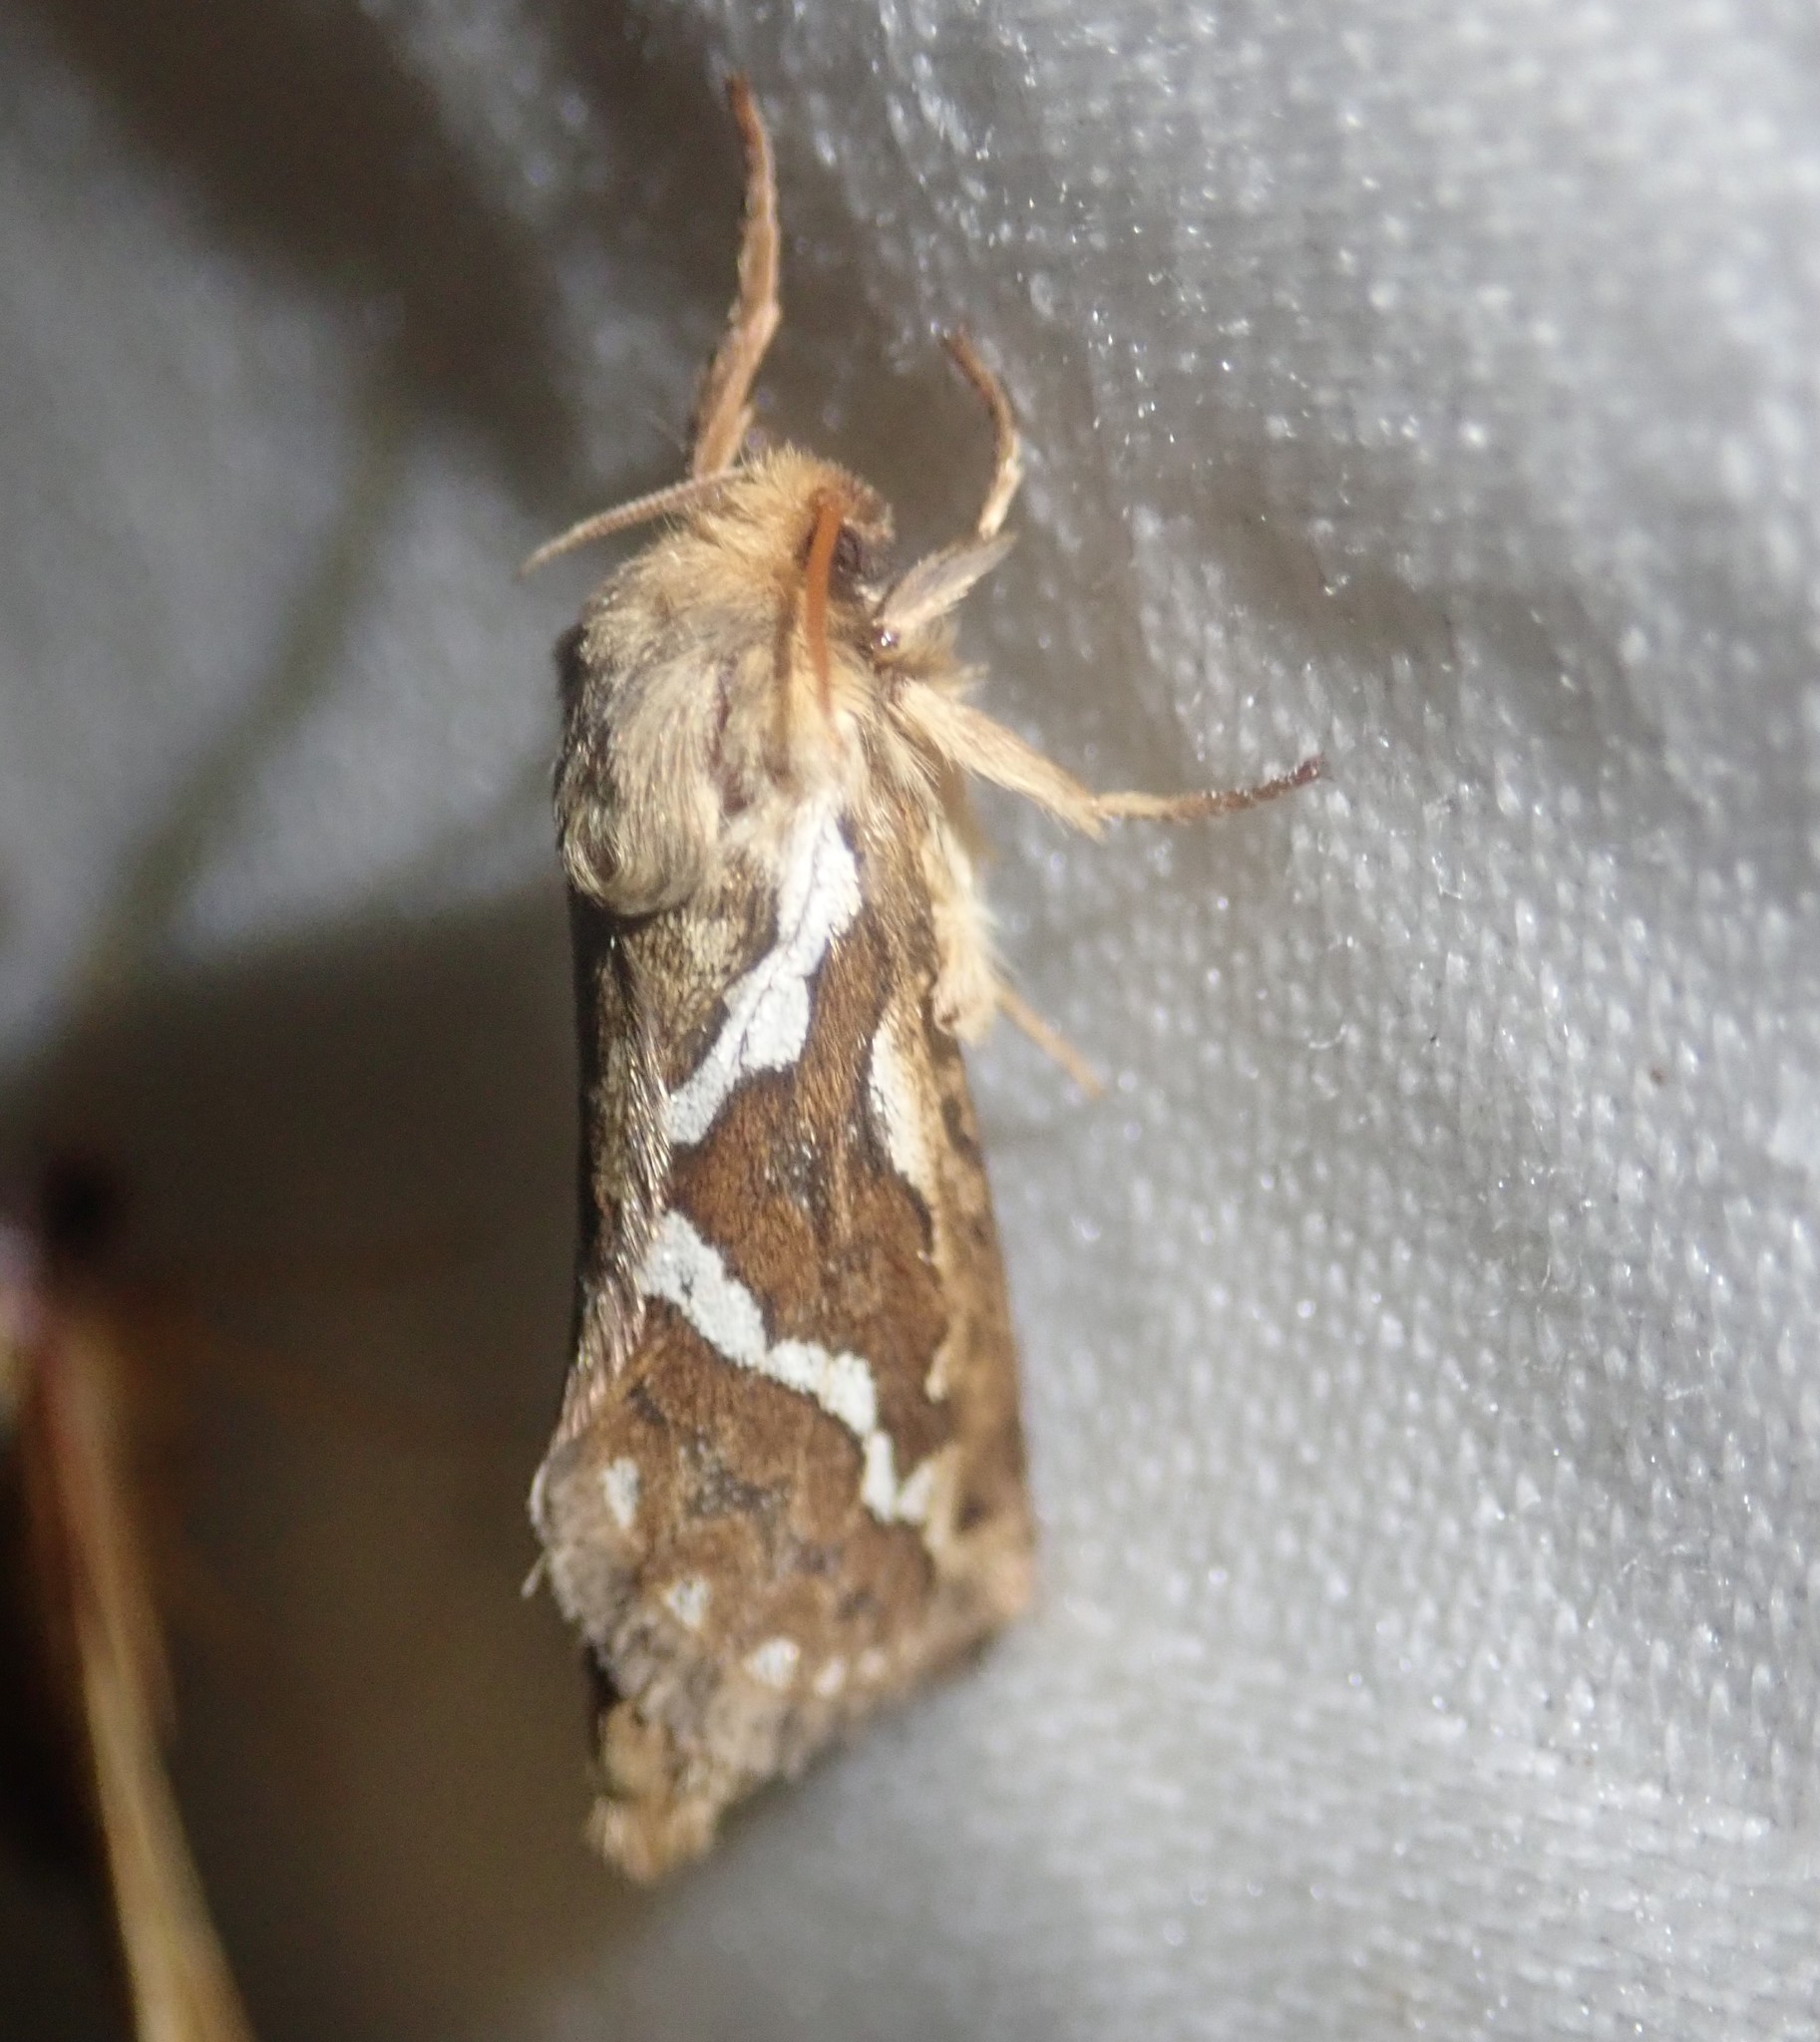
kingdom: Animalia
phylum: Arthropoda
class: Insecta
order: Lepidoptera
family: Hepialidae
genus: Korscheltellus
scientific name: Korscheltellus lupulina
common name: Common swift
